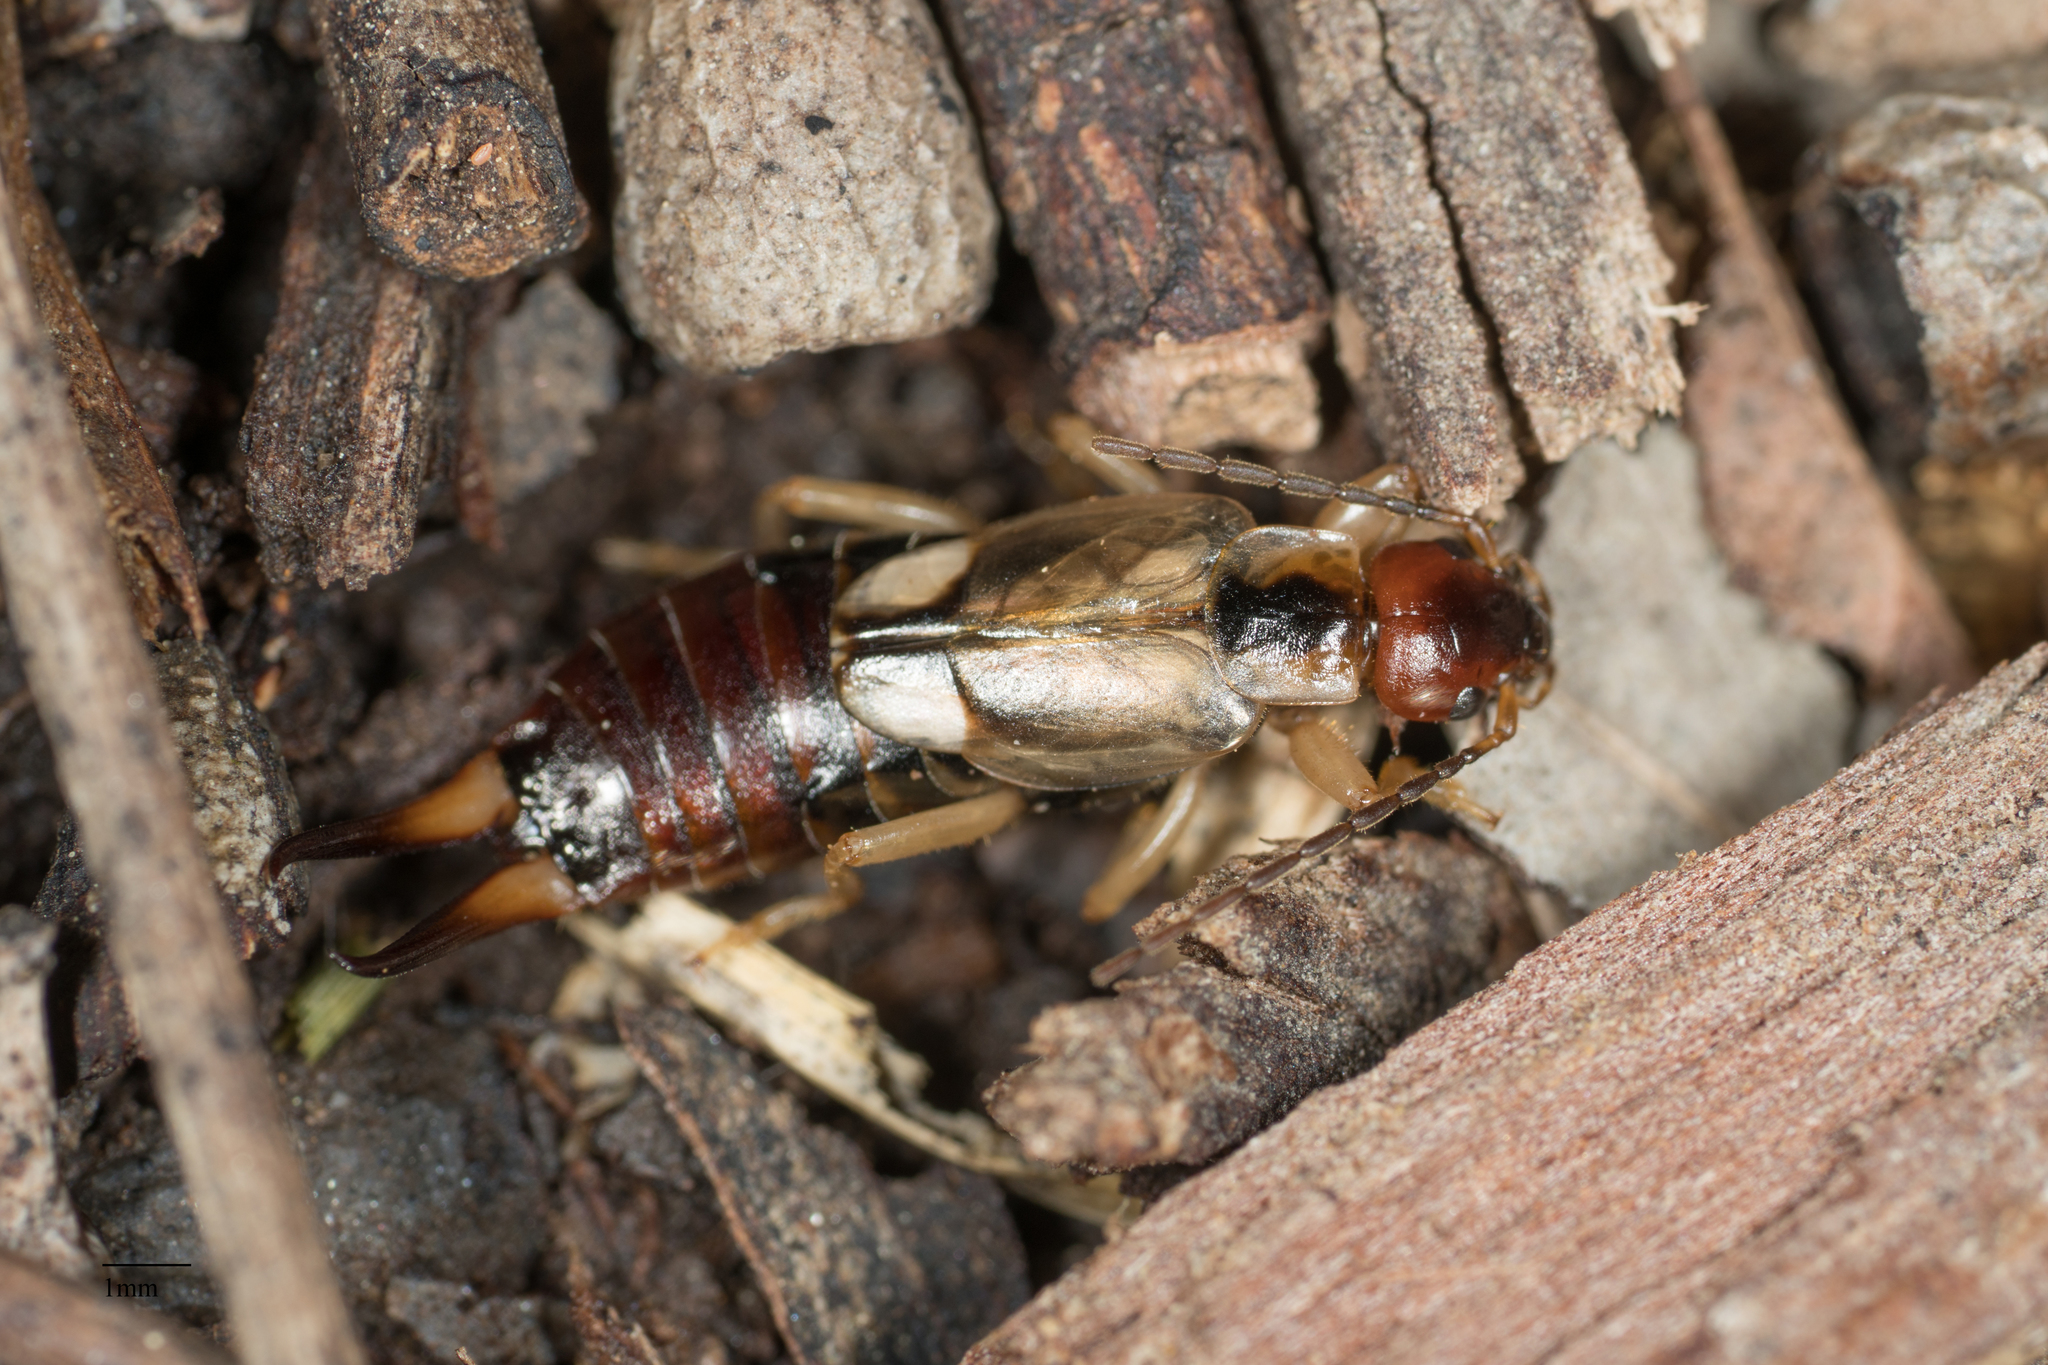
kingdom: Animalia
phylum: Arthropoda
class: Insecta
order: Dermaptera
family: Forficulidae
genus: Forficula
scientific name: Forficula
